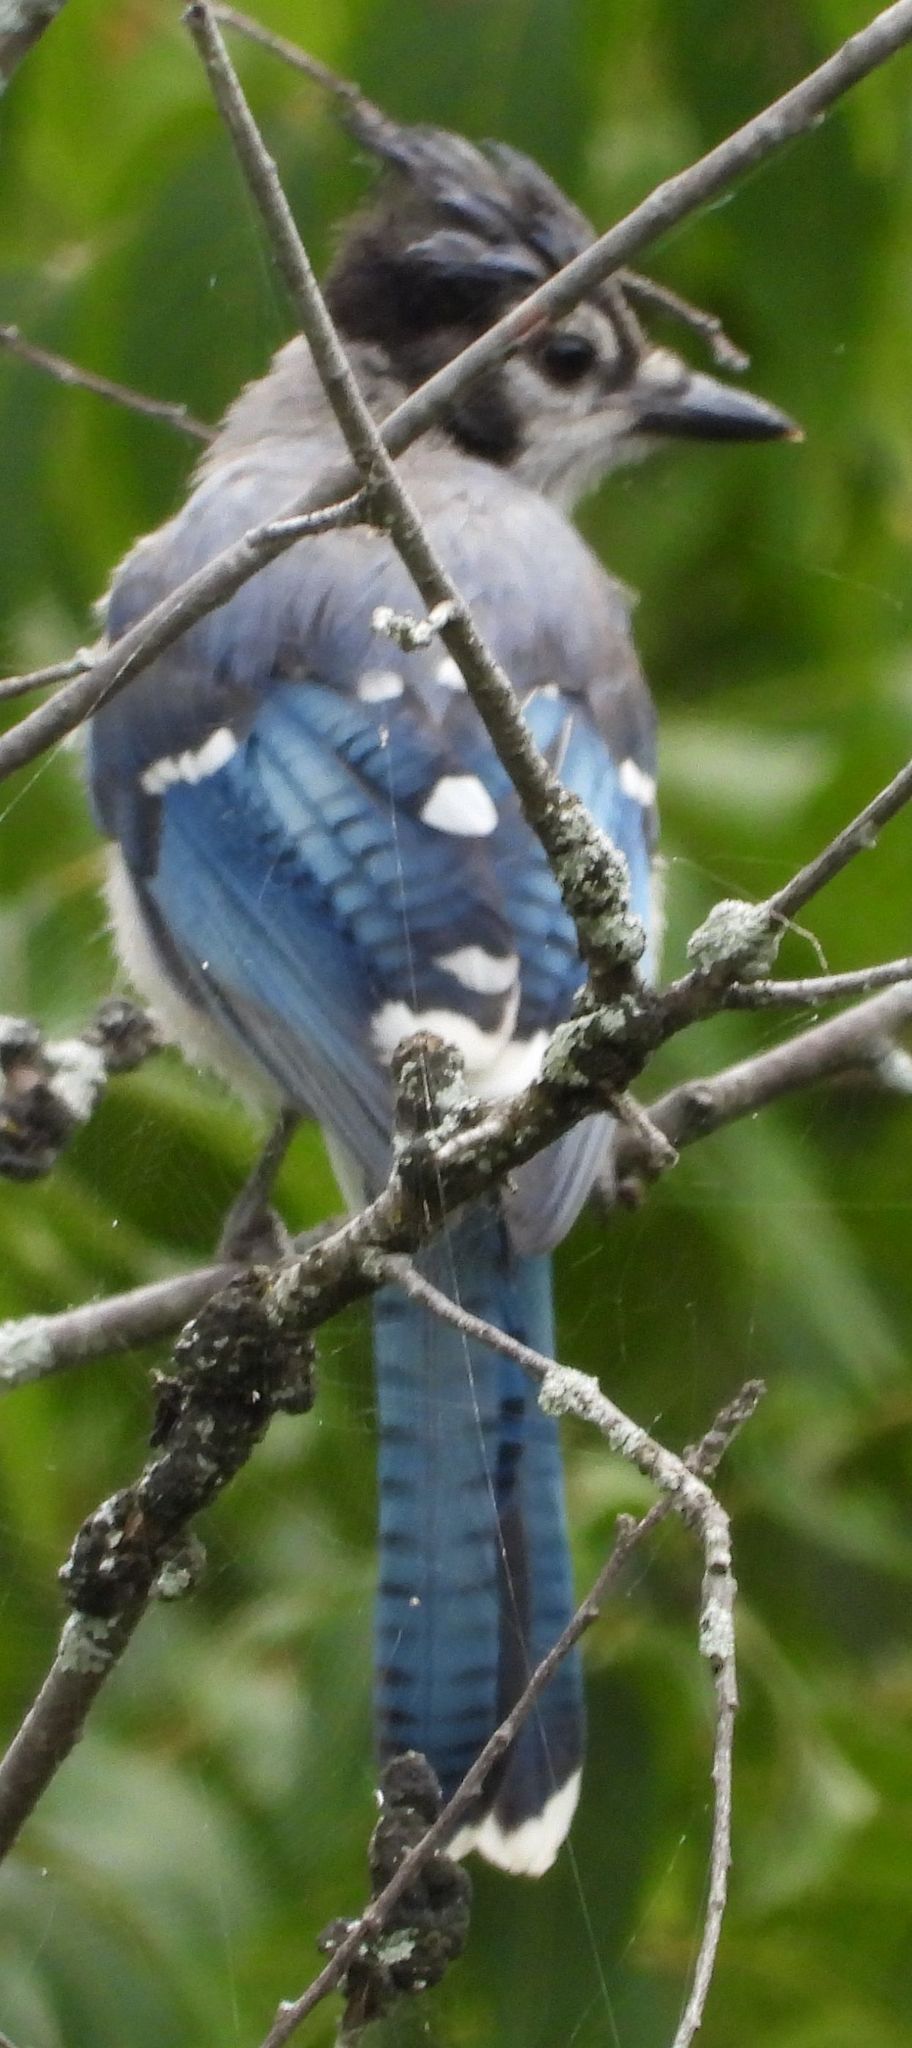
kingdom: Animalia
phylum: Chordata
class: Aves
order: Passeriformes
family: Corvidae
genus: Cyanocitta
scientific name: Cyanocitta cristata
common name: Blue jay
